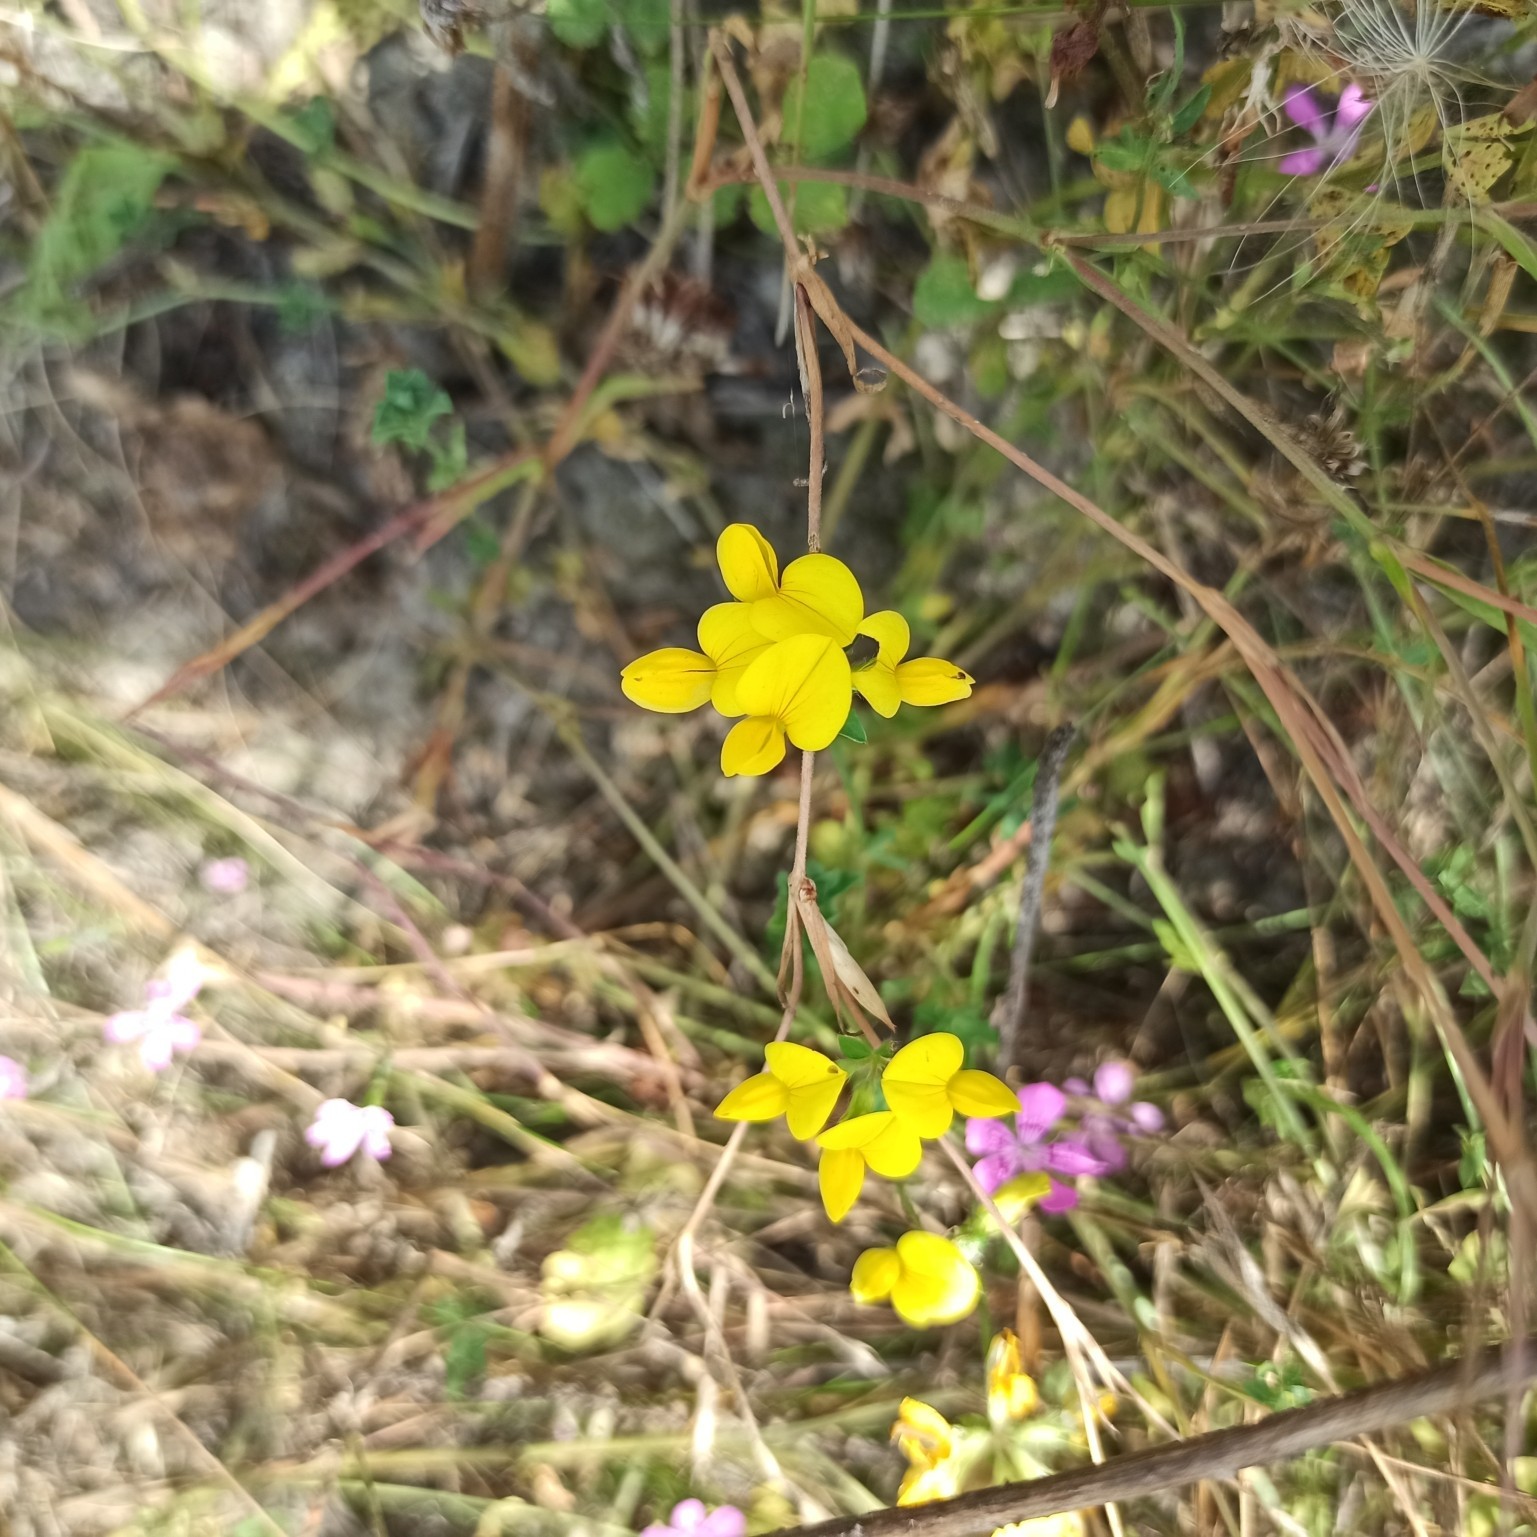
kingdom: Plantae
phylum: Tracheophyta
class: Magnoliopsida
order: Fabales
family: Fabaceae
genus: Lotus
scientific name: Lotus corniculatus
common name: Common bird's-foot-trefoil
